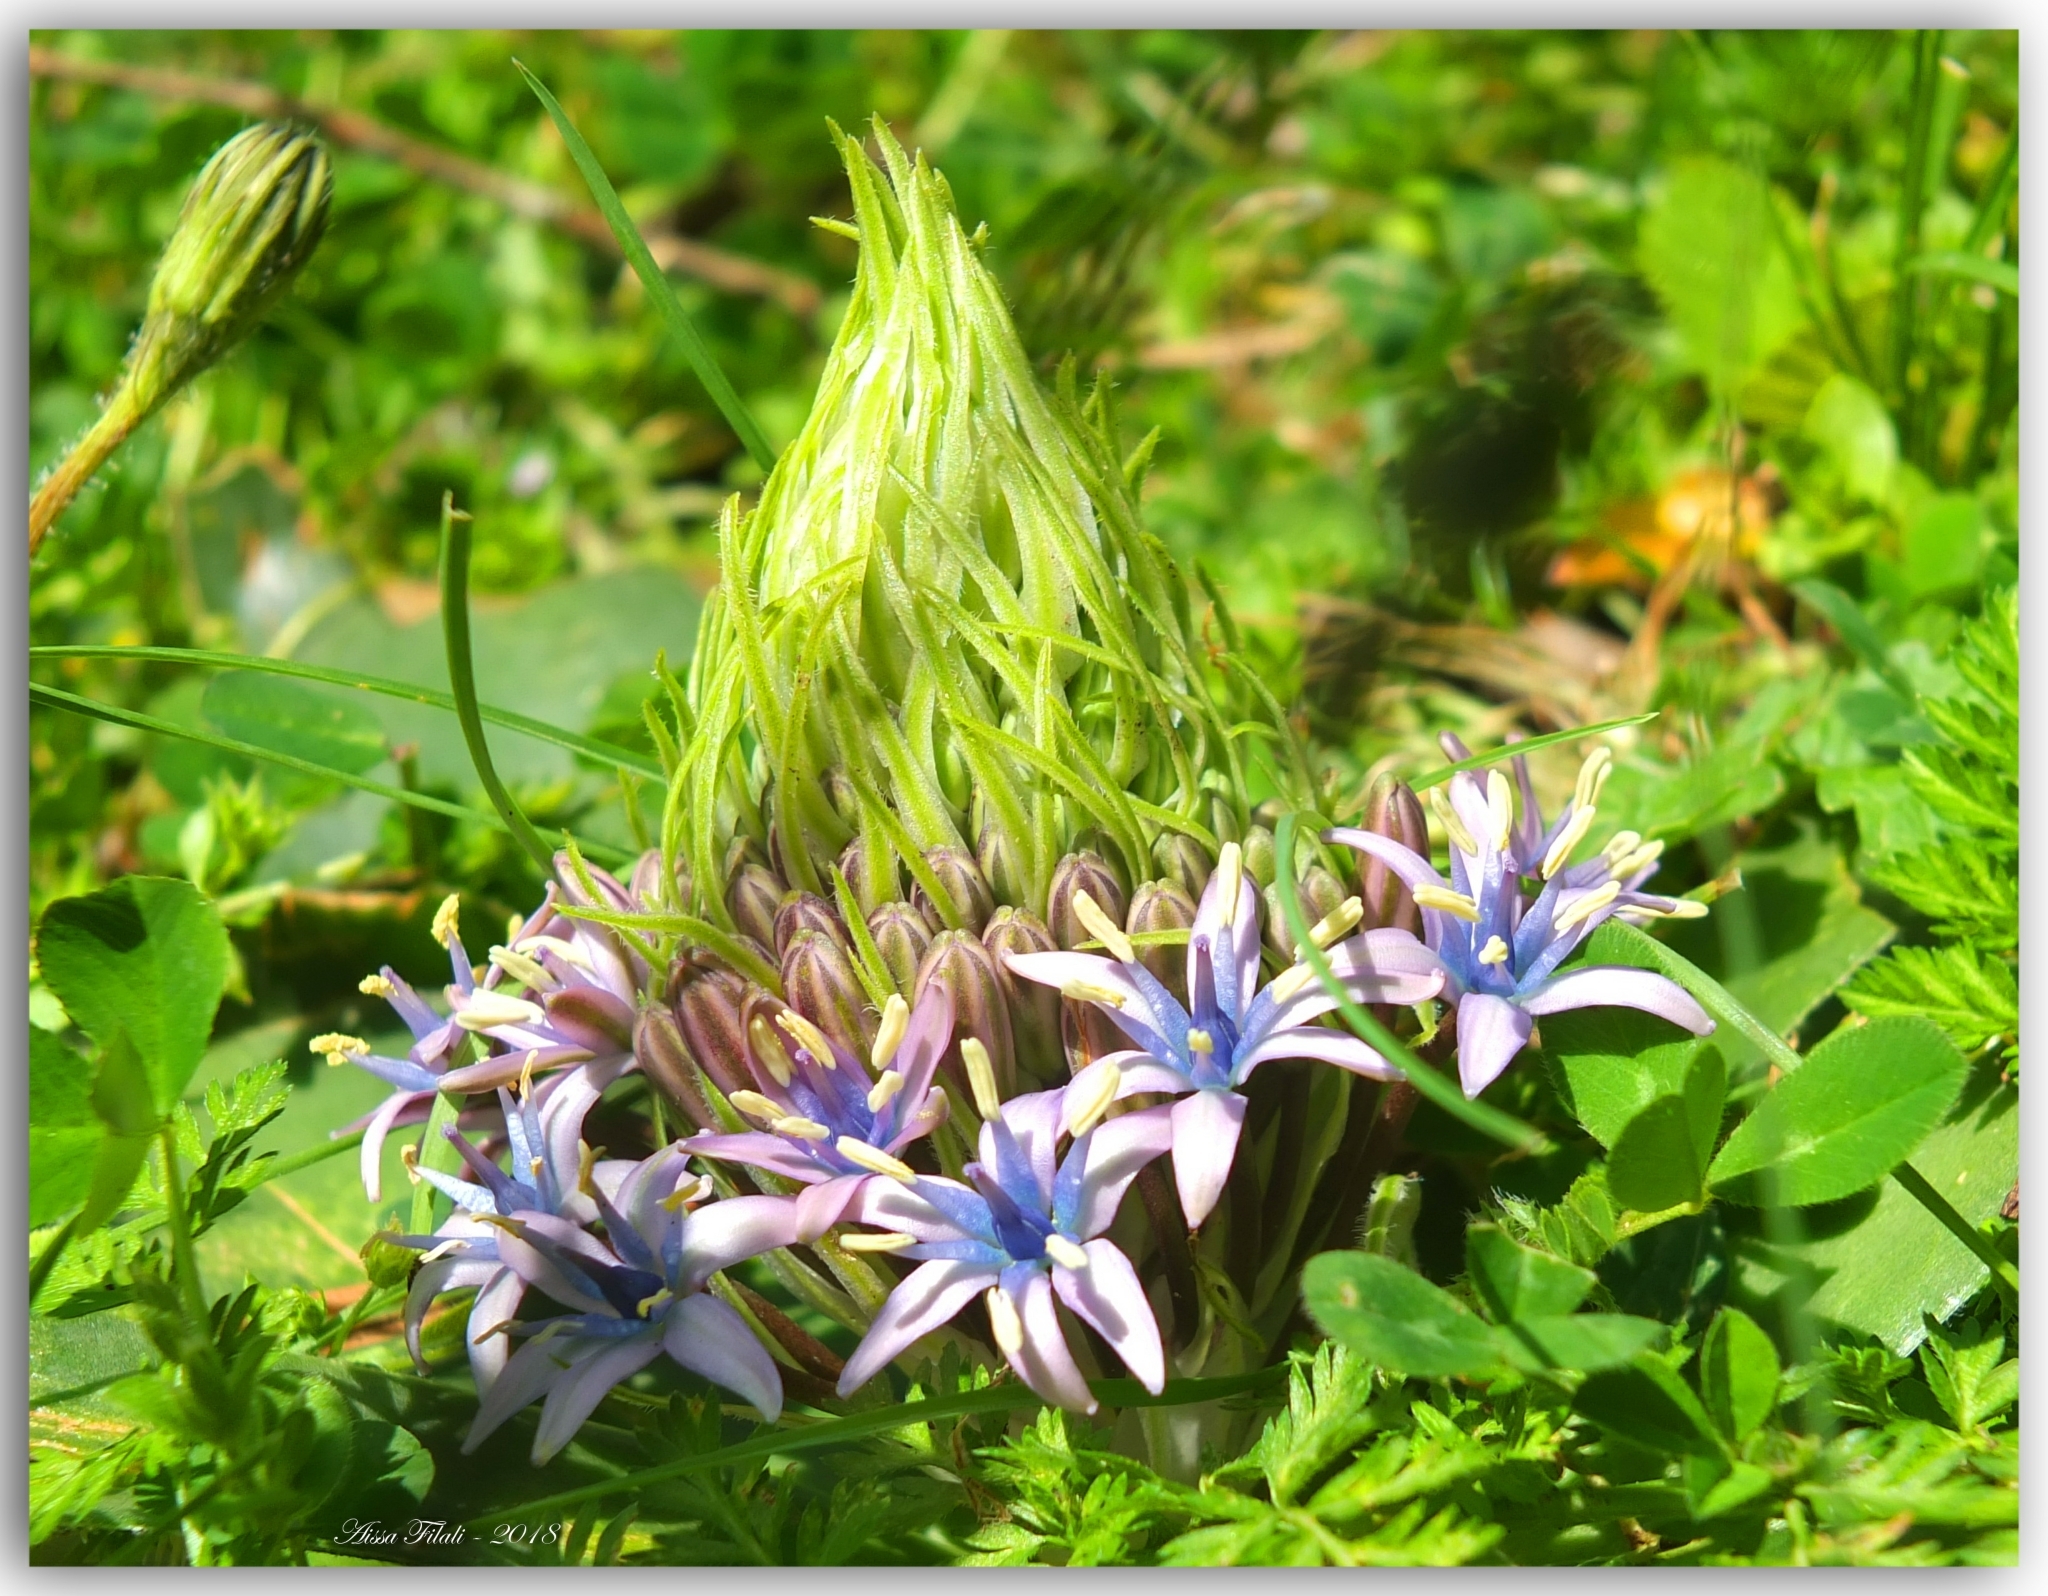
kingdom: Plantae
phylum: Tracheophyta
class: Liliopsida
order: Asparagales
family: Asparagaceae
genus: Scilla
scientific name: Scilla peruviana
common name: Portuguese squill
